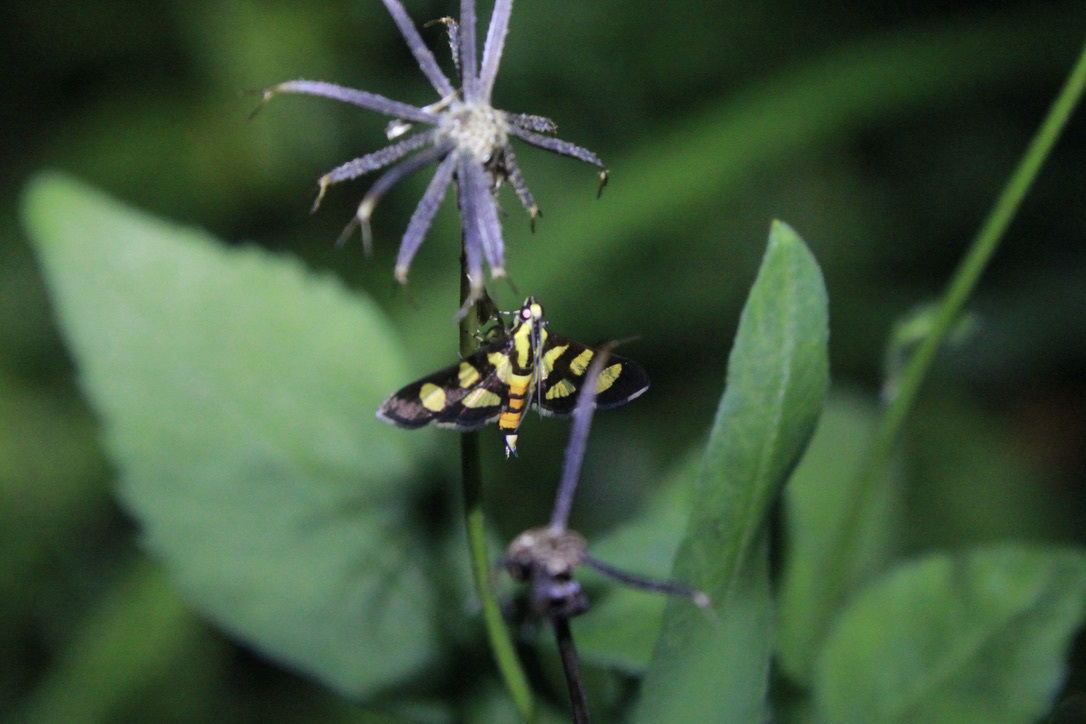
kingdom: Animalia
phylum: Arthropoda
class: Insecta
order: Lepidoptera
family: Crambidae
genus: Syngamia
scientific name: Syngamia florella
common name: Orange-spotted flower moth
